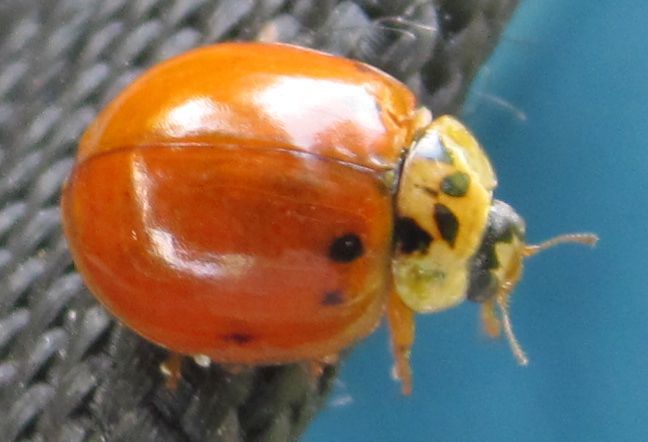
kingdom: Animalia
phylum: Arthropoda
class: Insecta
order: Coleoptera
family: Coccinellidae
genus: Harmonia
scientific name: Harmonia axyridis
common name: Harlequin ladybird
